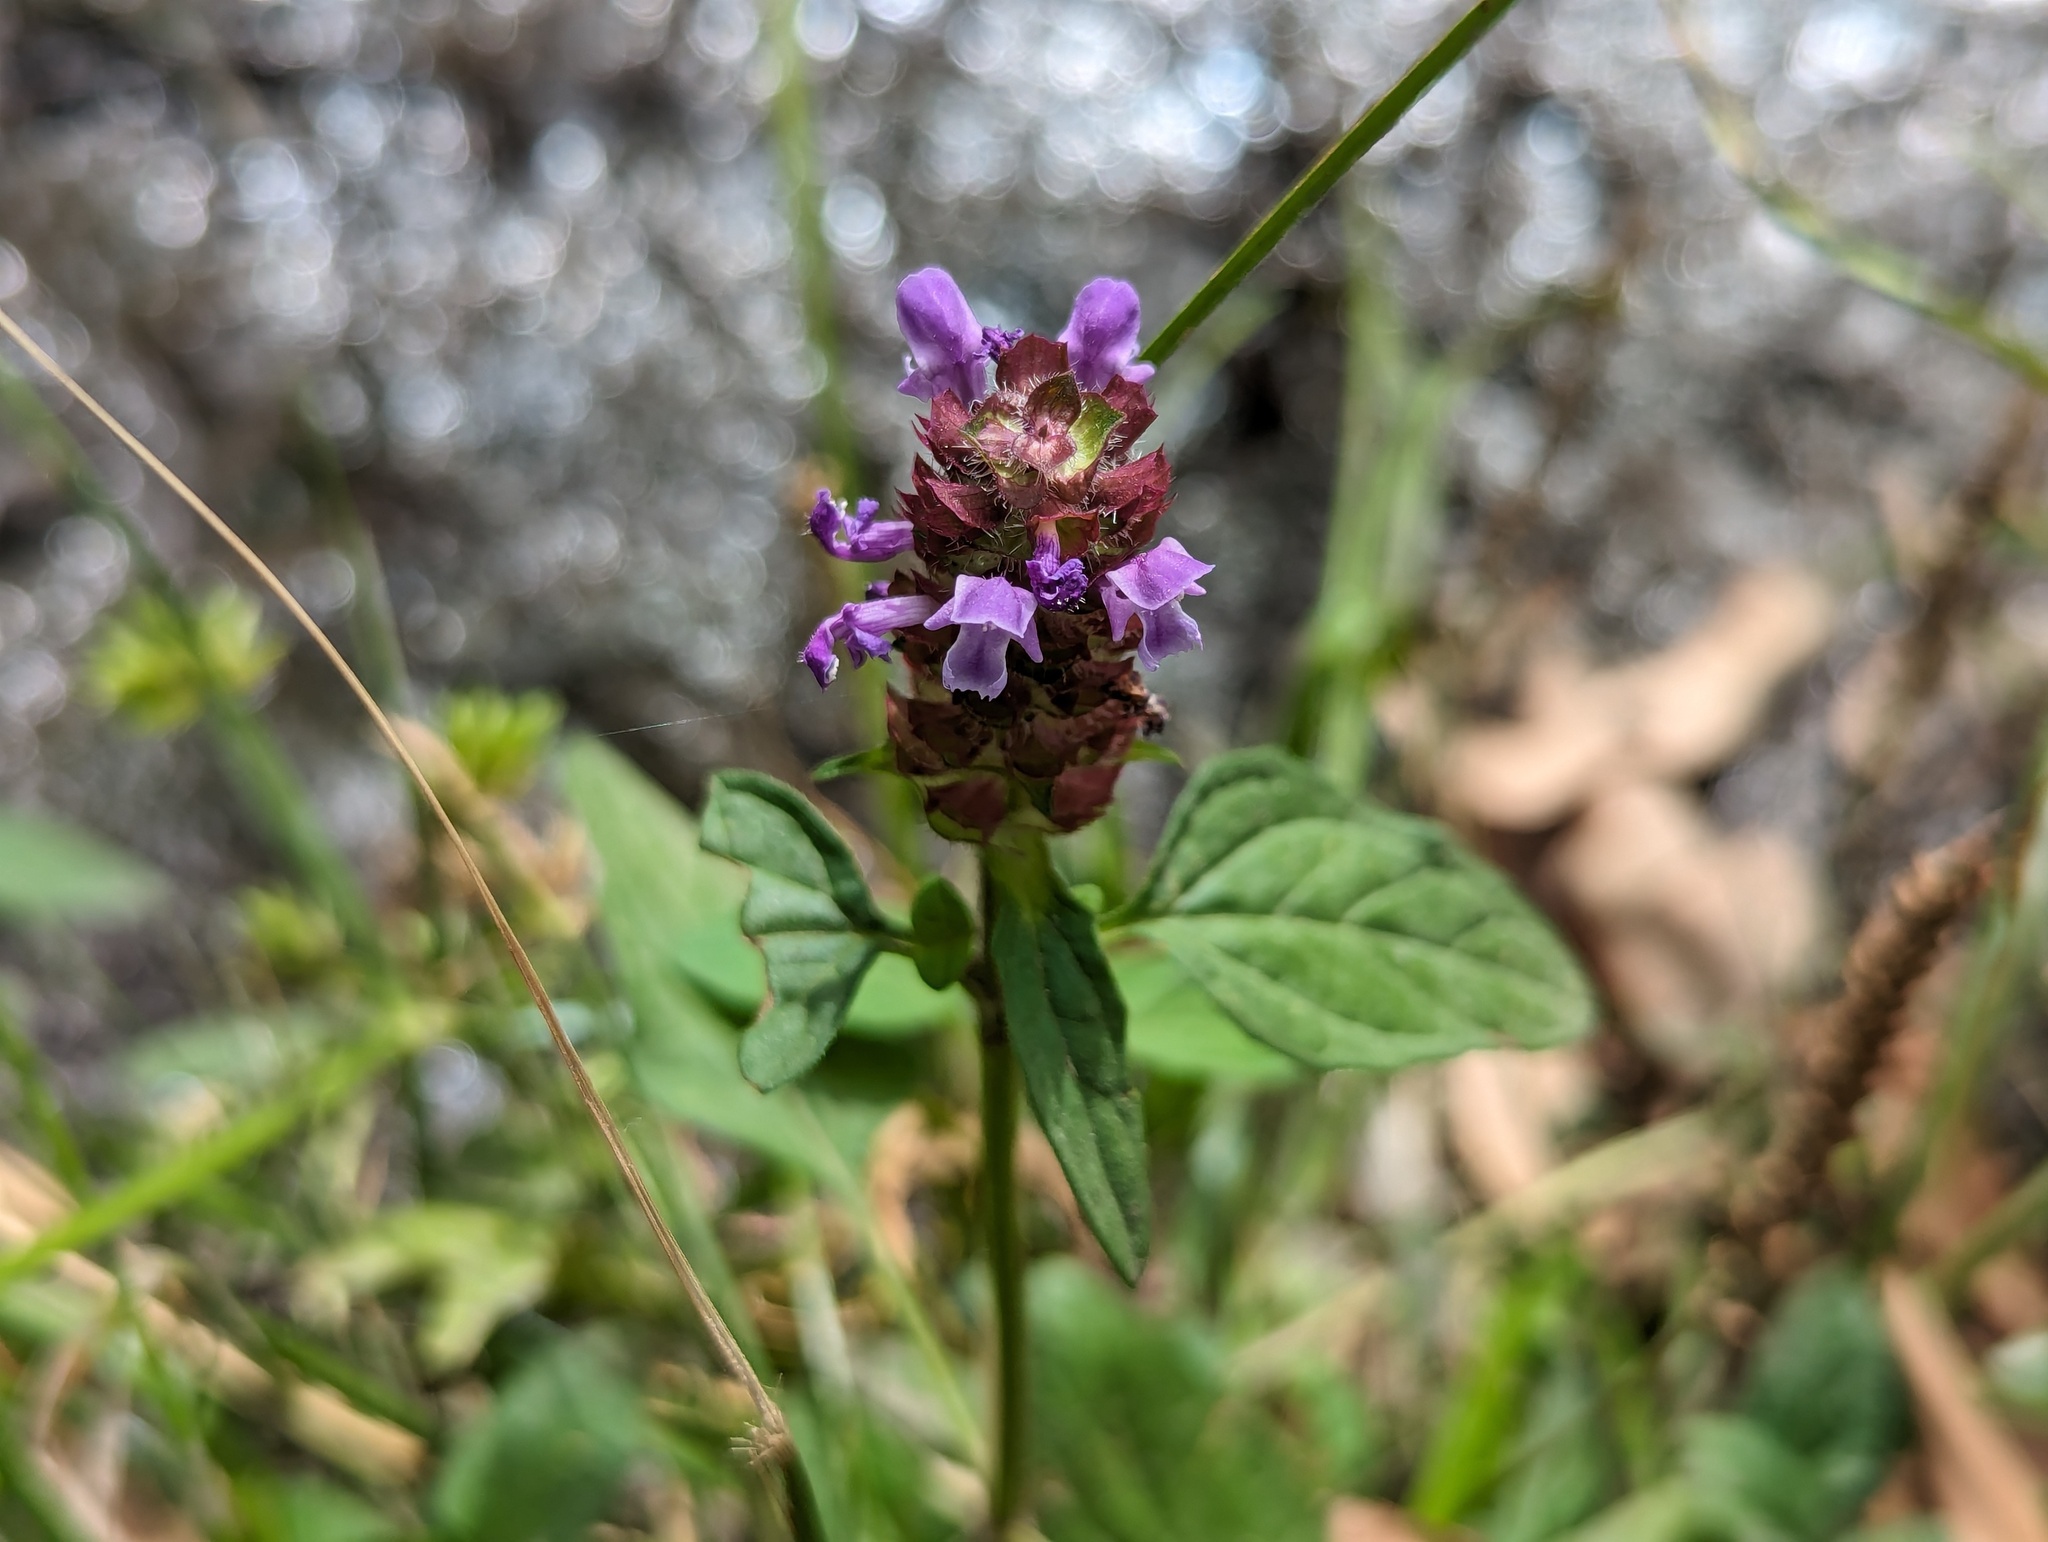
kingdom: Plantae
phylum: Tracheophyta
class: Magnoliopsida
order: Lamiales
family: Lamiaceae
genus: Prunella
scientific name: Prunella vulgaris
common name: Heal-all
